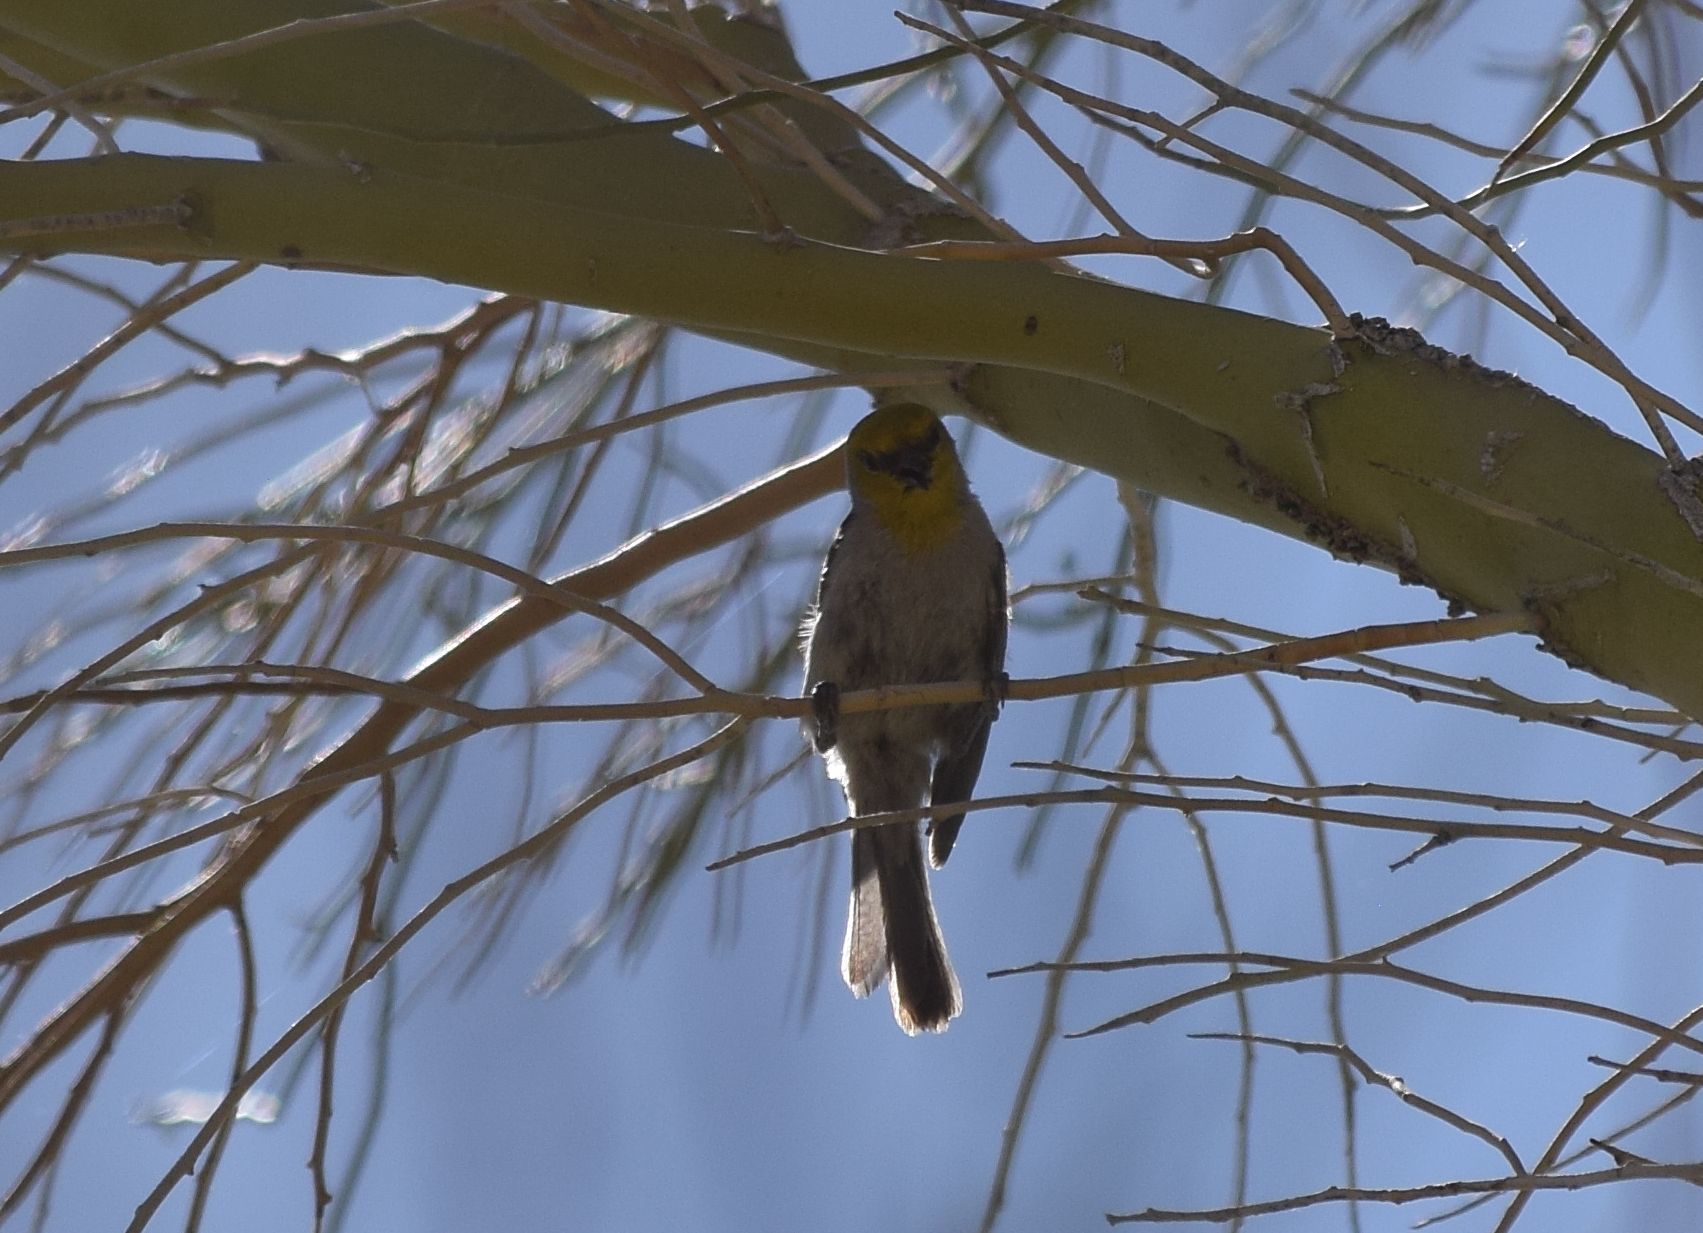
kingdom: Animalia
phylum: Chordata
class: Aves
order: Passeriformes
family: Remizidae
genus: Auriparus
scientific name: Auriparus flaviceps
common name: Verdin
